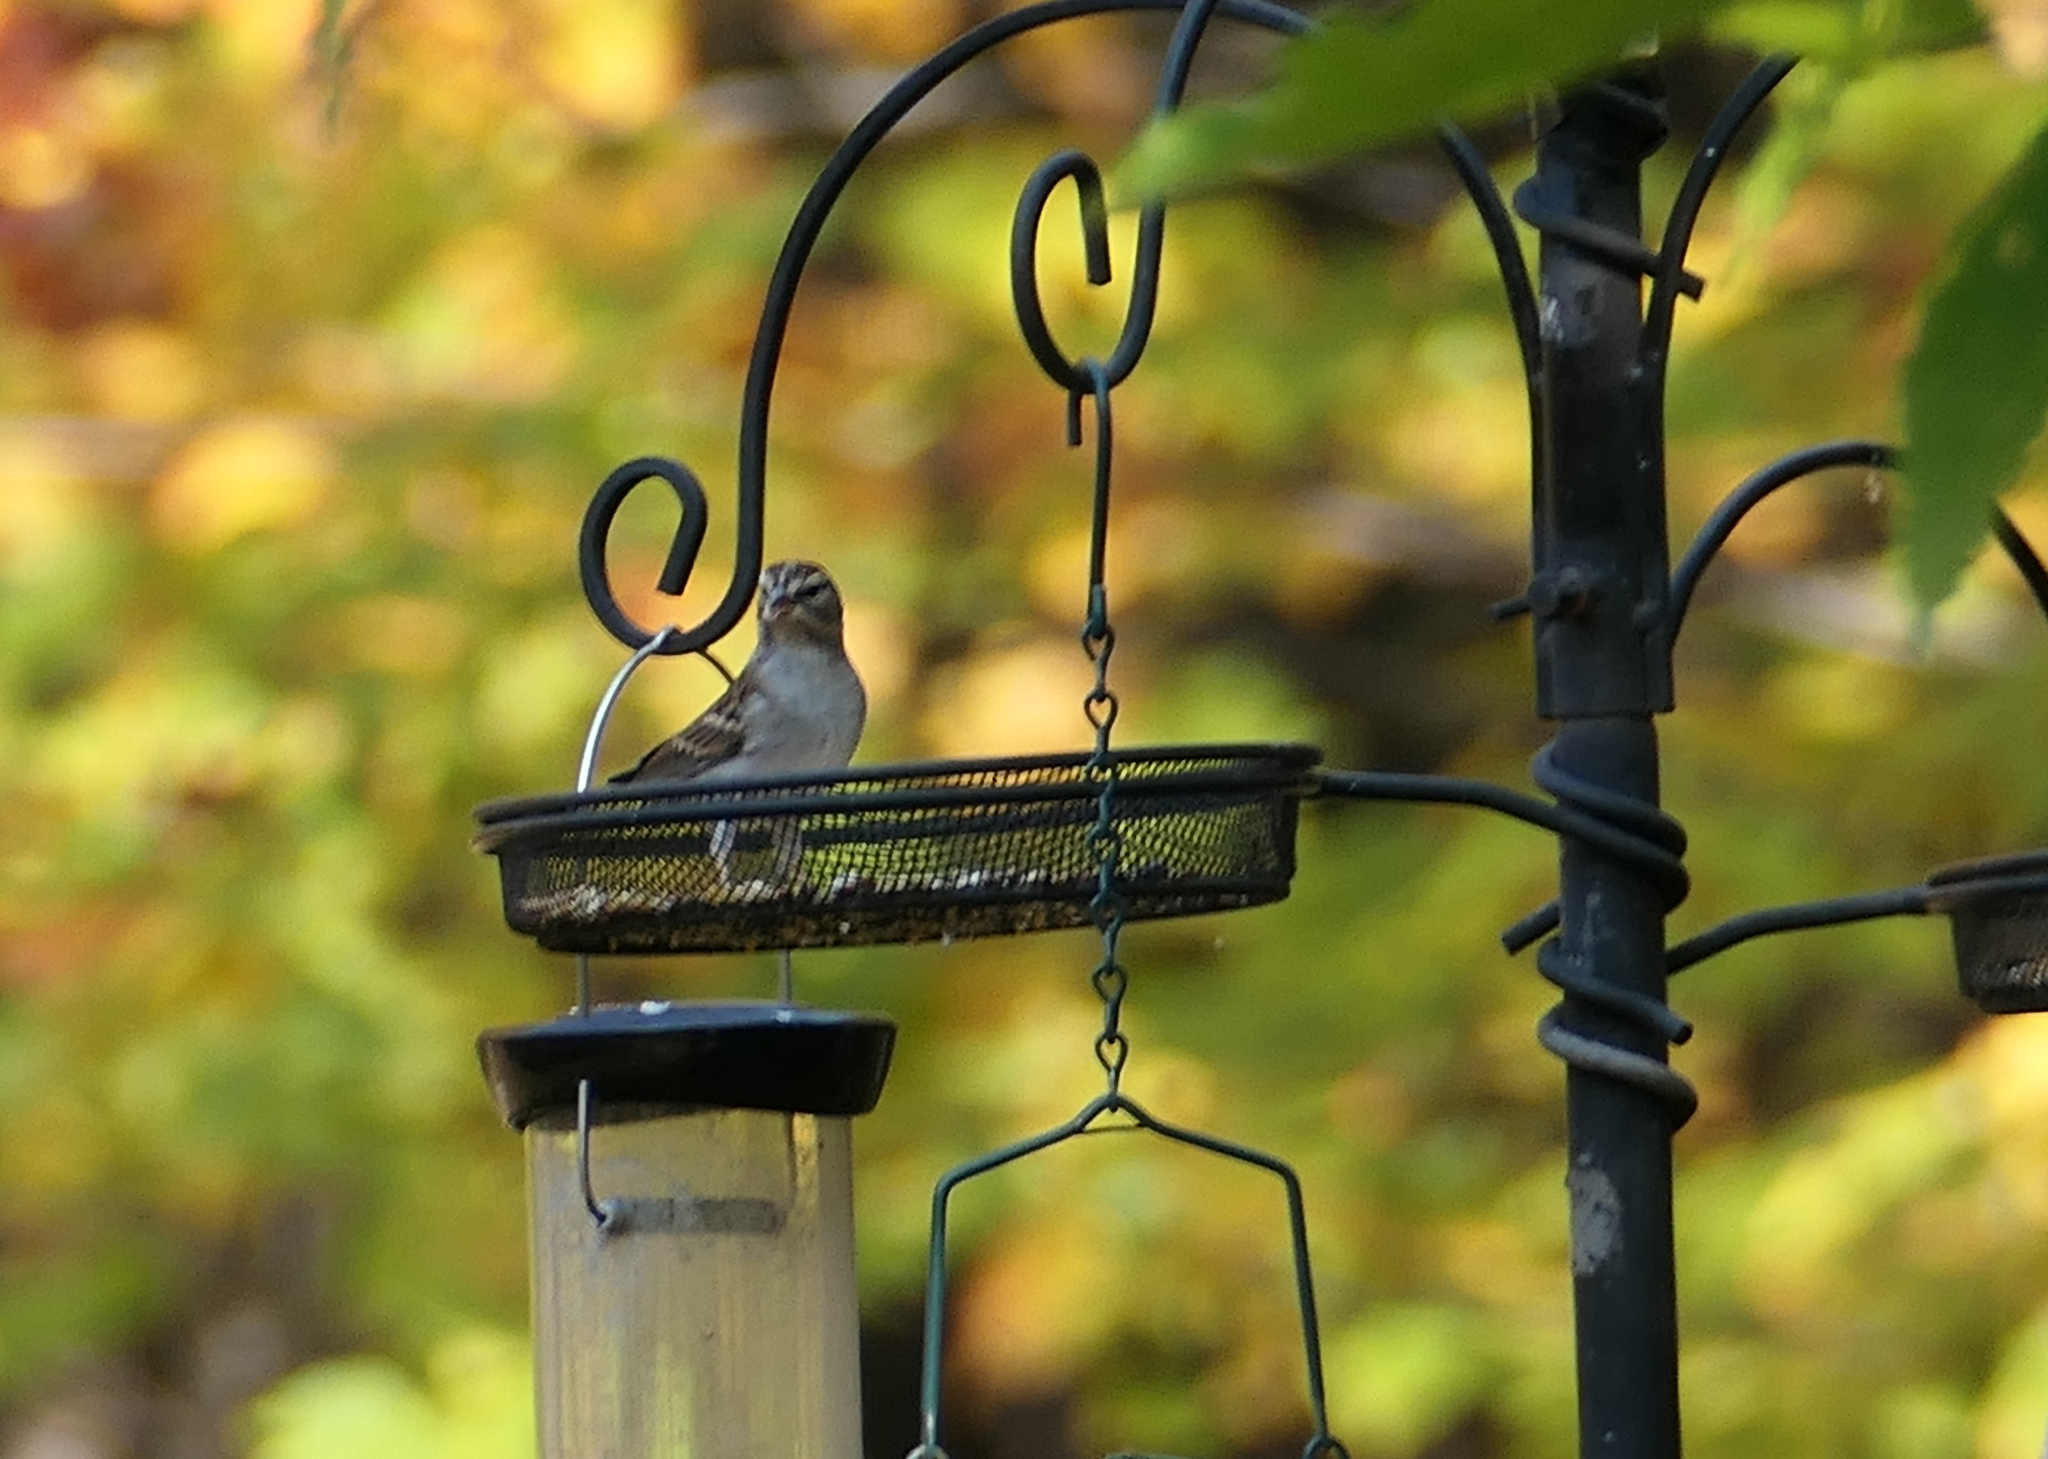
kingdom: Animalia
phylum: Chordata
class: Aves
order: Passeriformes
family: Passerellidae
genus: Spizella
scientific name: Spizella passerina
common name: Chipping sparrow
